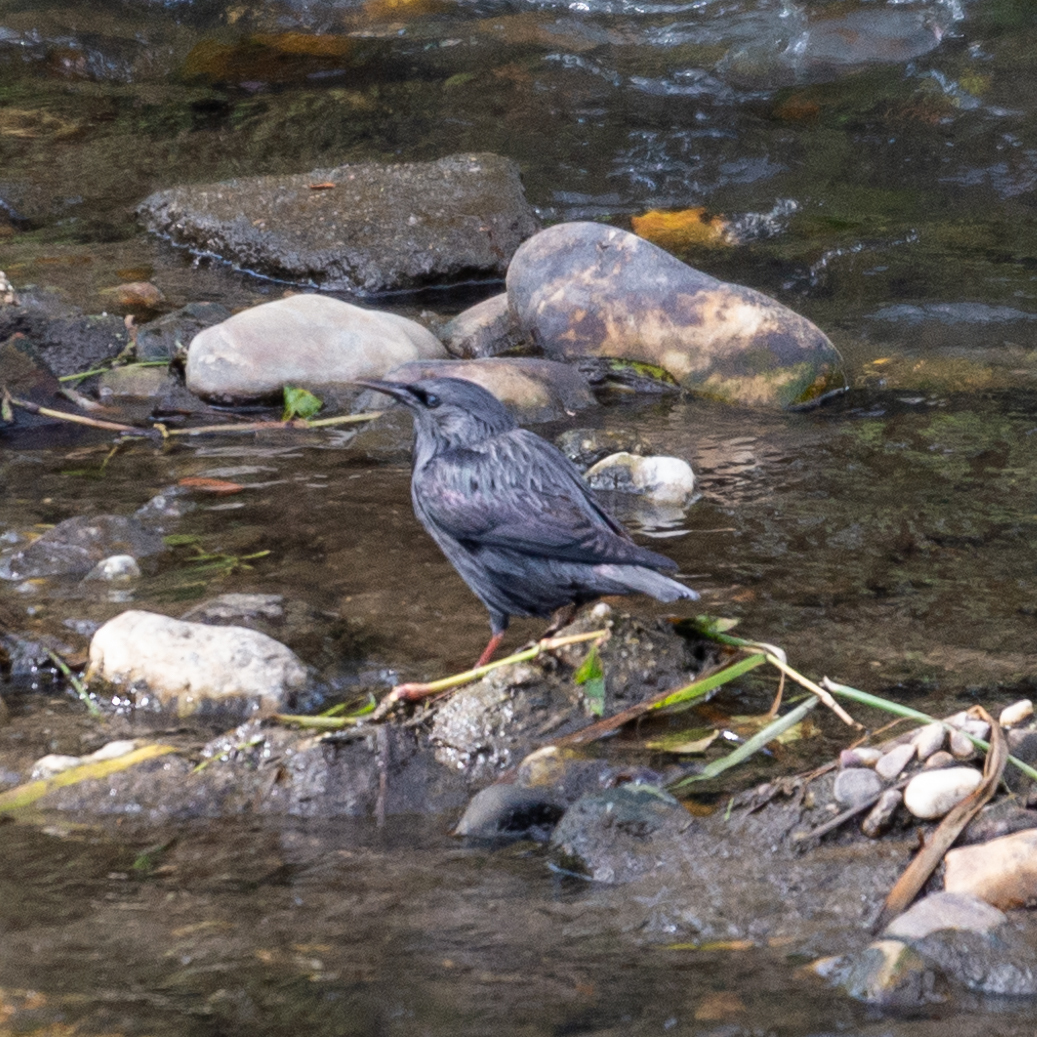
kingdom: Animalia
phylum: Chordata
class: Aves
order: Passeriformes
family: Sturnidae
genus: Sturnus
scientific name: Sturnus unicolor
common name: Spotless starling
